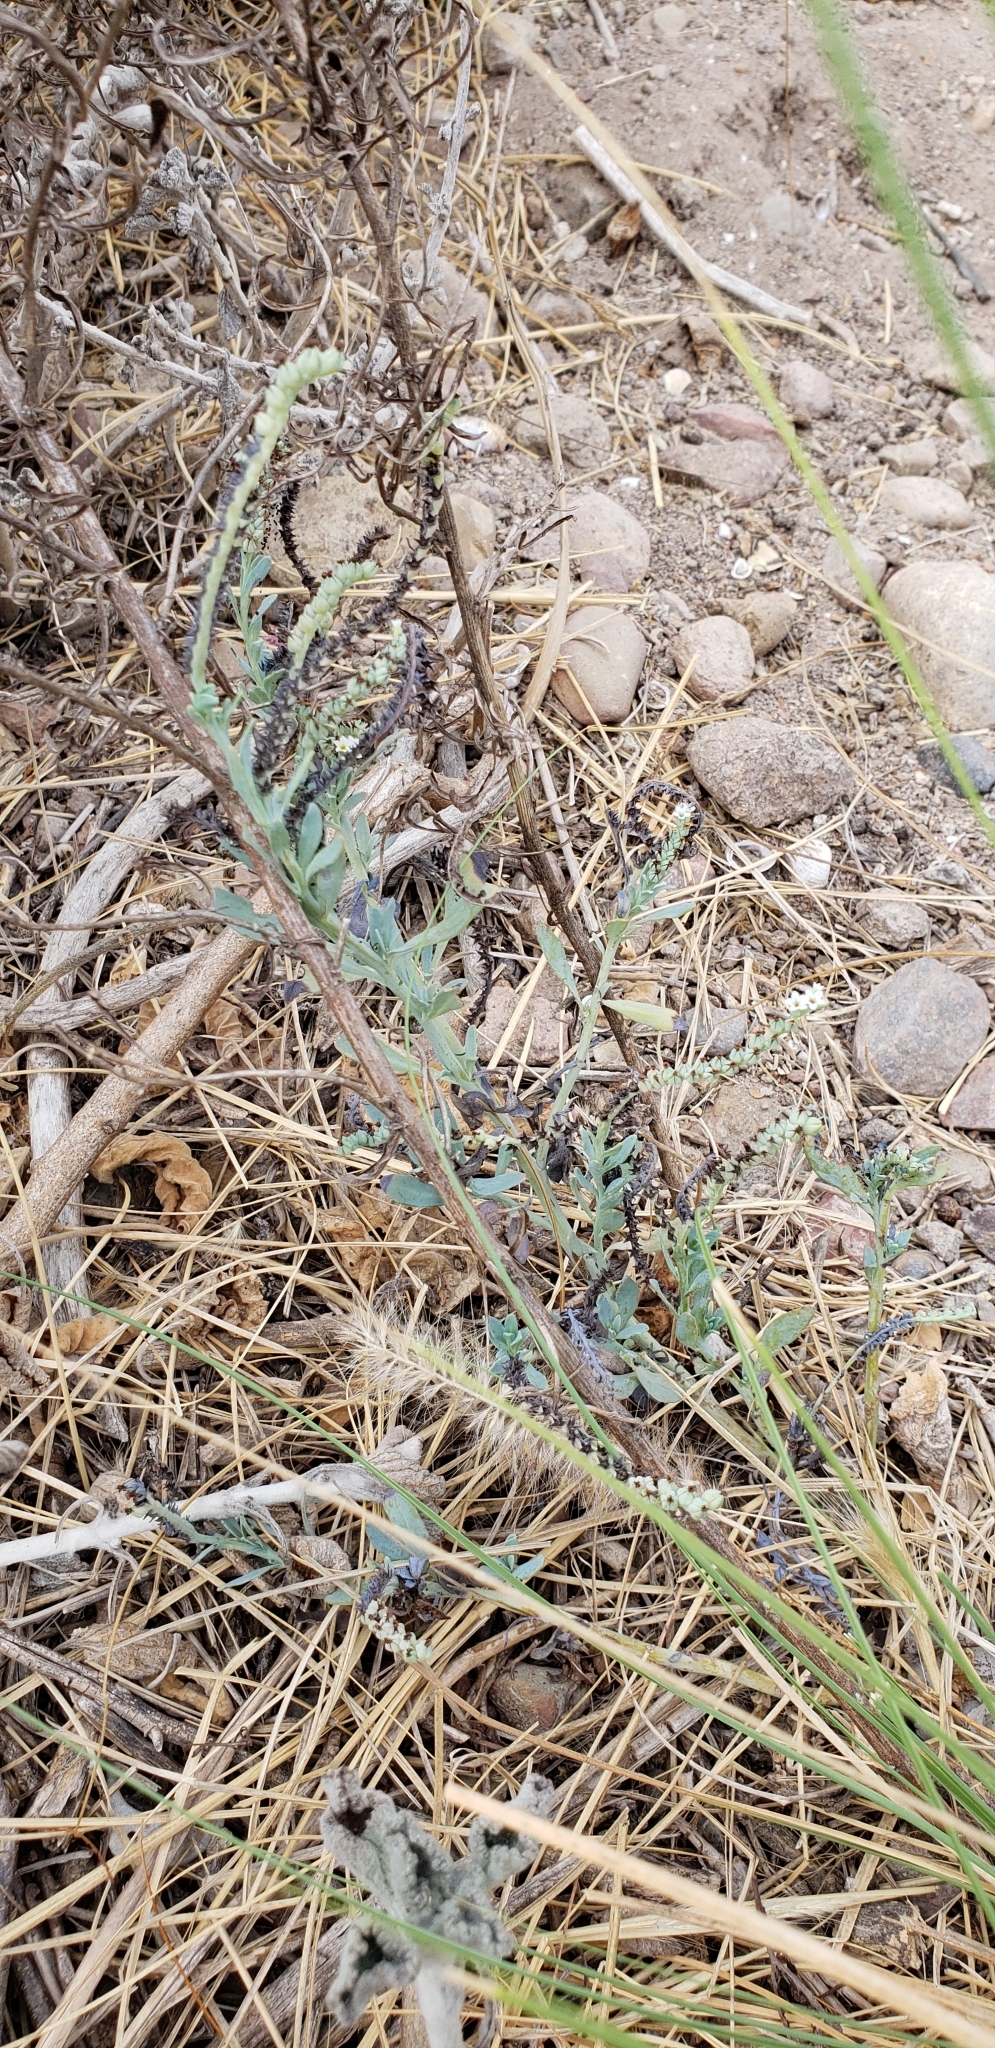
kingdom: Plantae
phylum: Tracheophyta
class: Magnoliopsida
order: Boraginales
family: Heliotropiaceae
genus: Heliotropium
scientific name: Heliotropium curassavicum
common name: Seaside heliotrope
